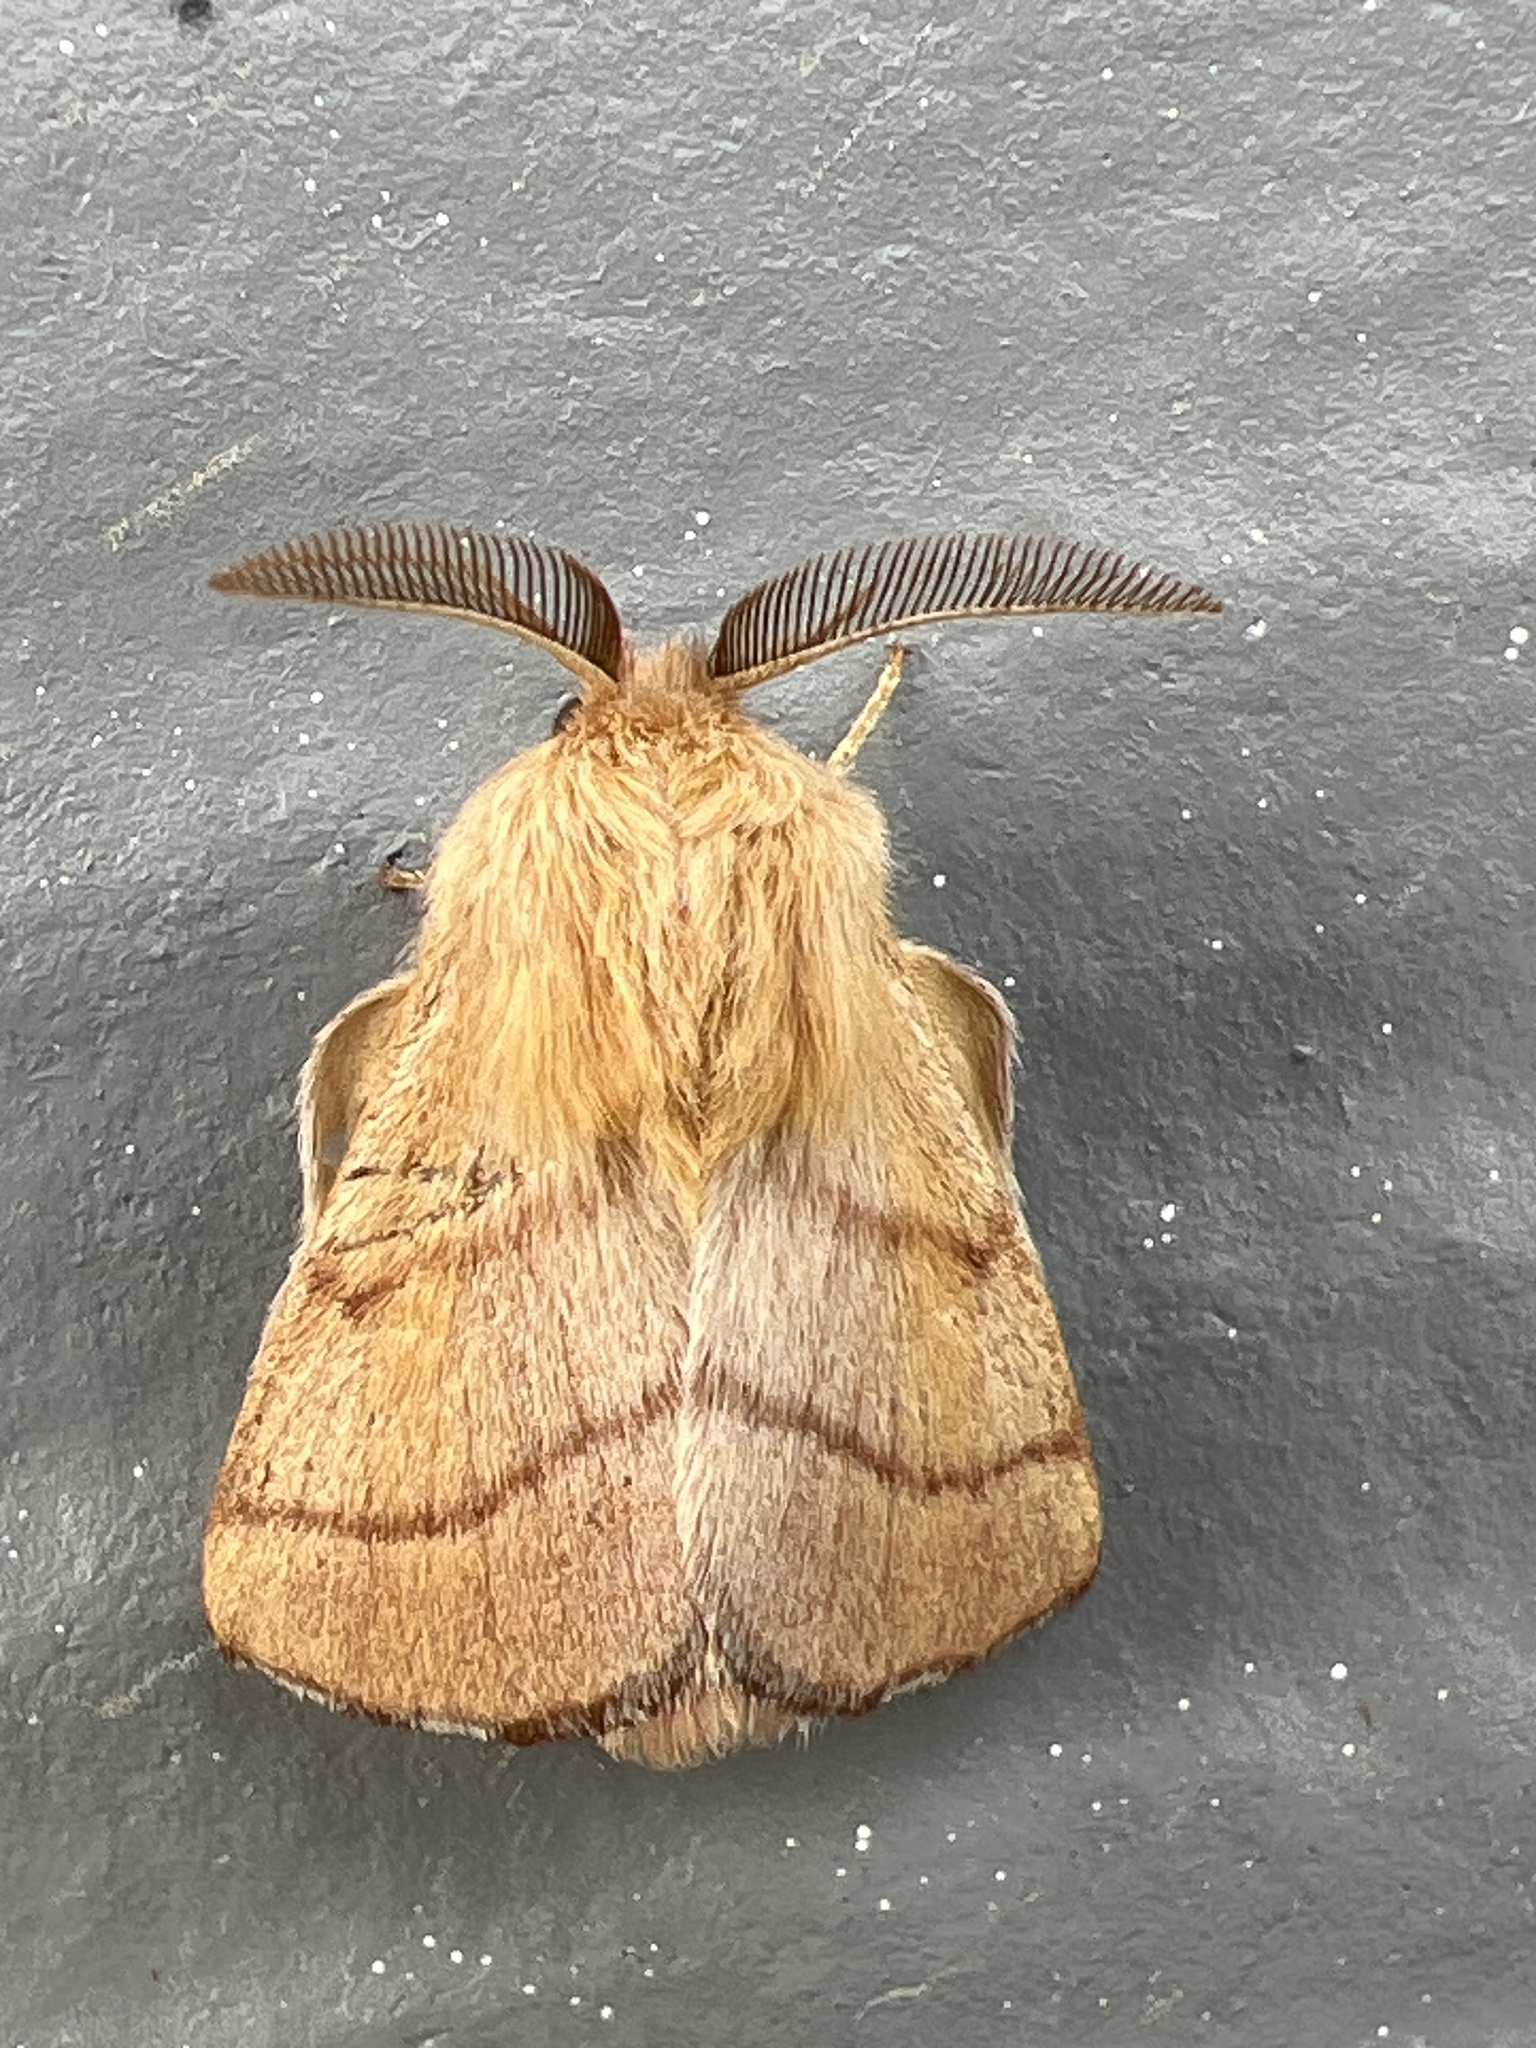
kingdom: Animalia
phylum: Arthropoda
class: Insecta
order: Lepidoptera
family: Lasiocampidae
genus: Malacosoma
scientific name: Malacosoma disstria
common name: Forest tent caterpillar
